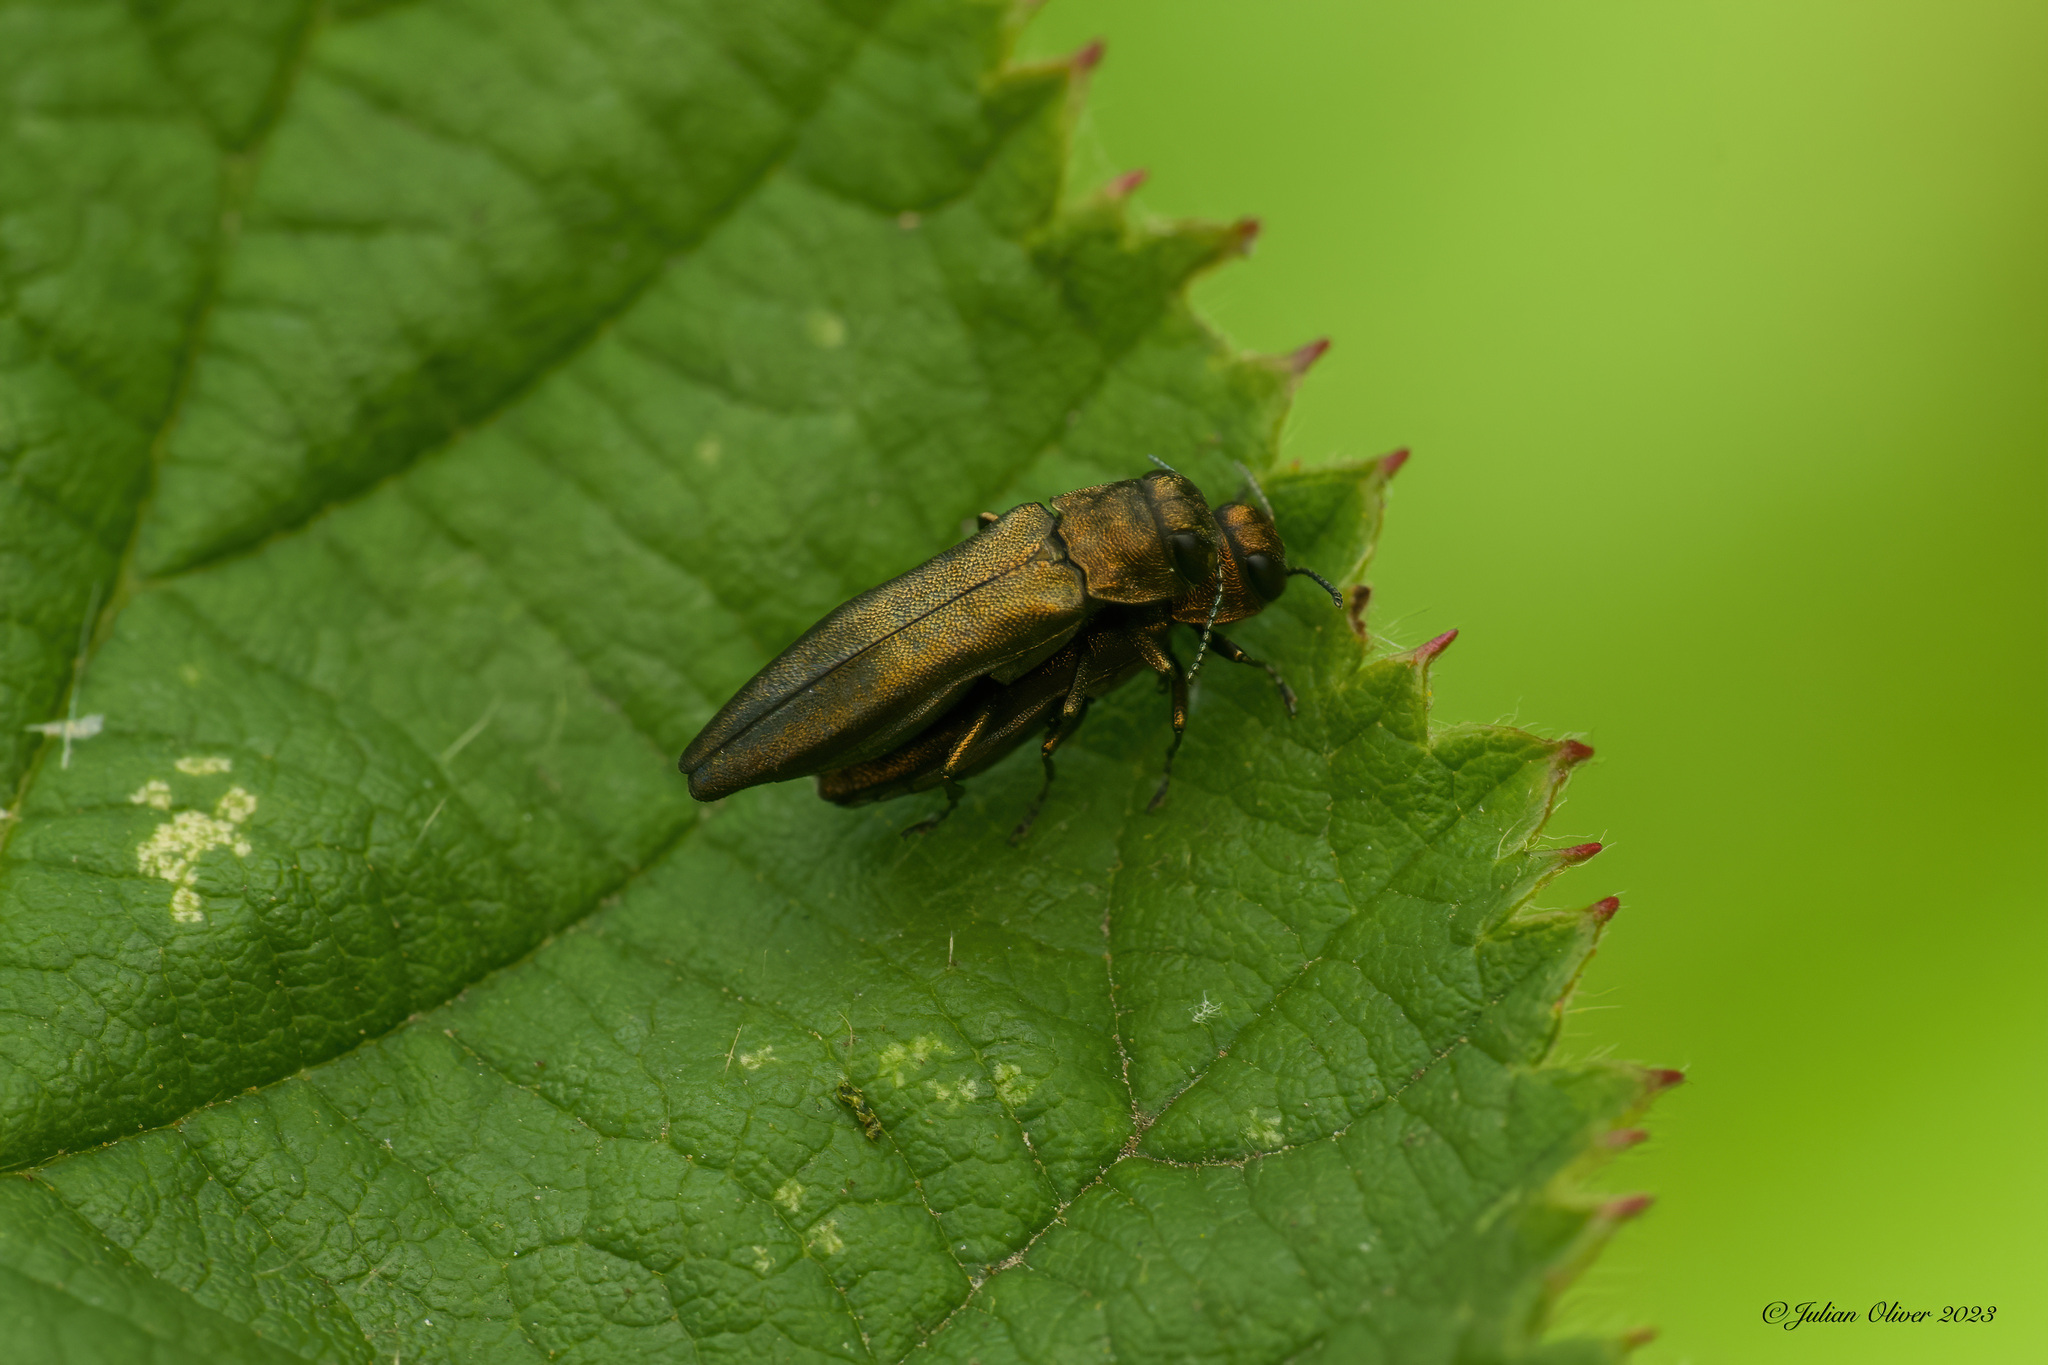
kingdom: Animalia
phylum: Arthropoda
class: Insecta
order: Coleoptera
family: Buprestidae
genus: Agrilus
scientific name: Agrilus cuprescens
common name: Rose stem girdler
